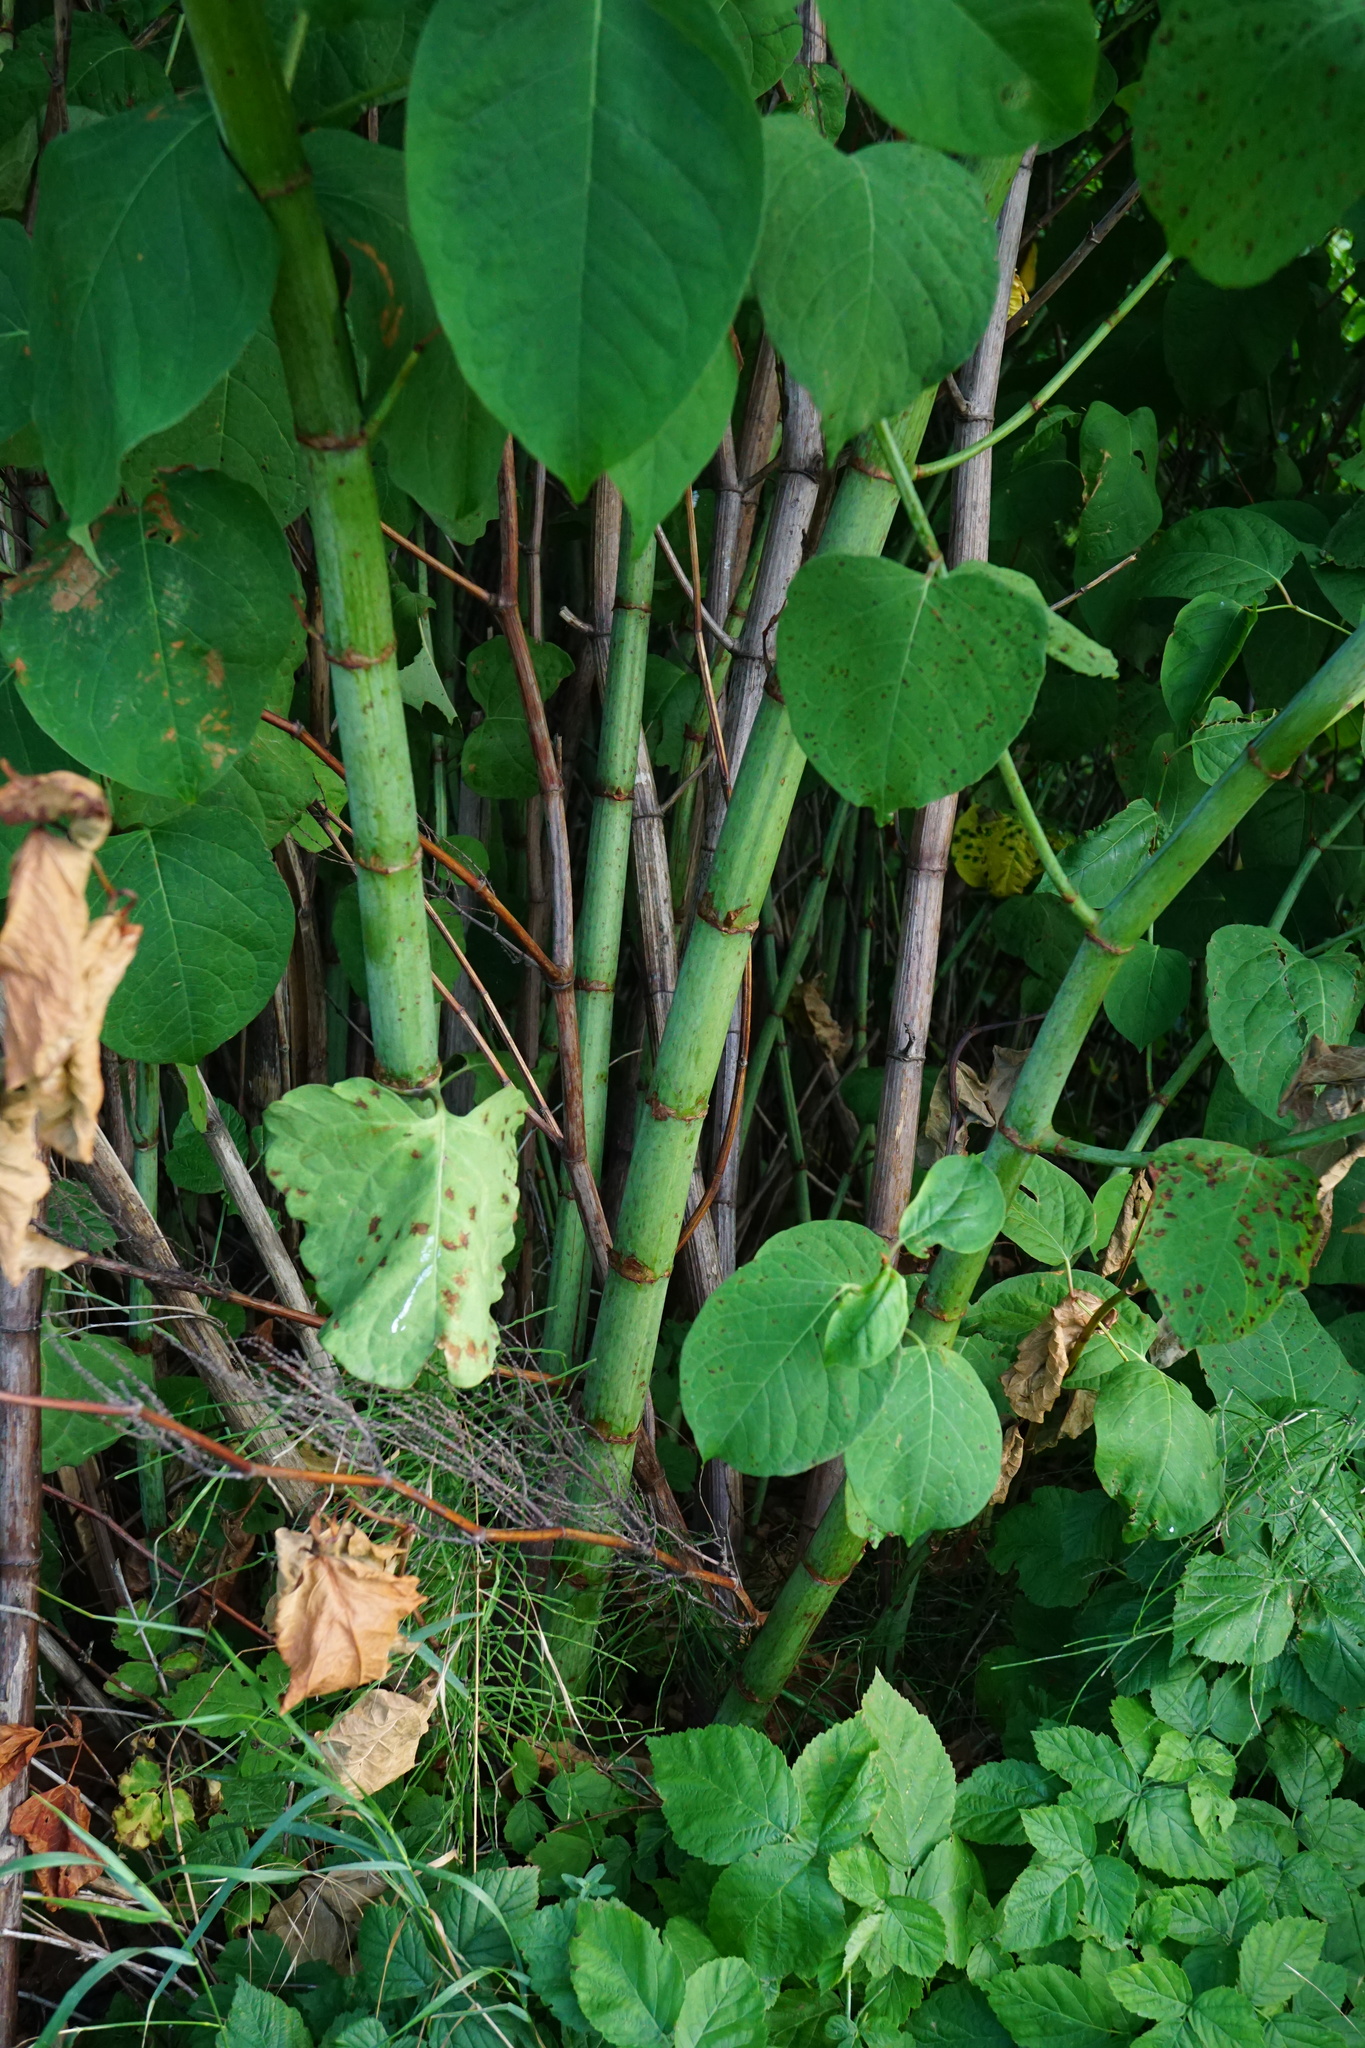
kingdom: Plantae
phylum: Tracheophyta
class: Magnoliopsida
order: Caryophyllales
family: Polygonaceae
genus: Reynoutria
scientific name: Reynoutria bohemica
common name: Bohemian knotweed
